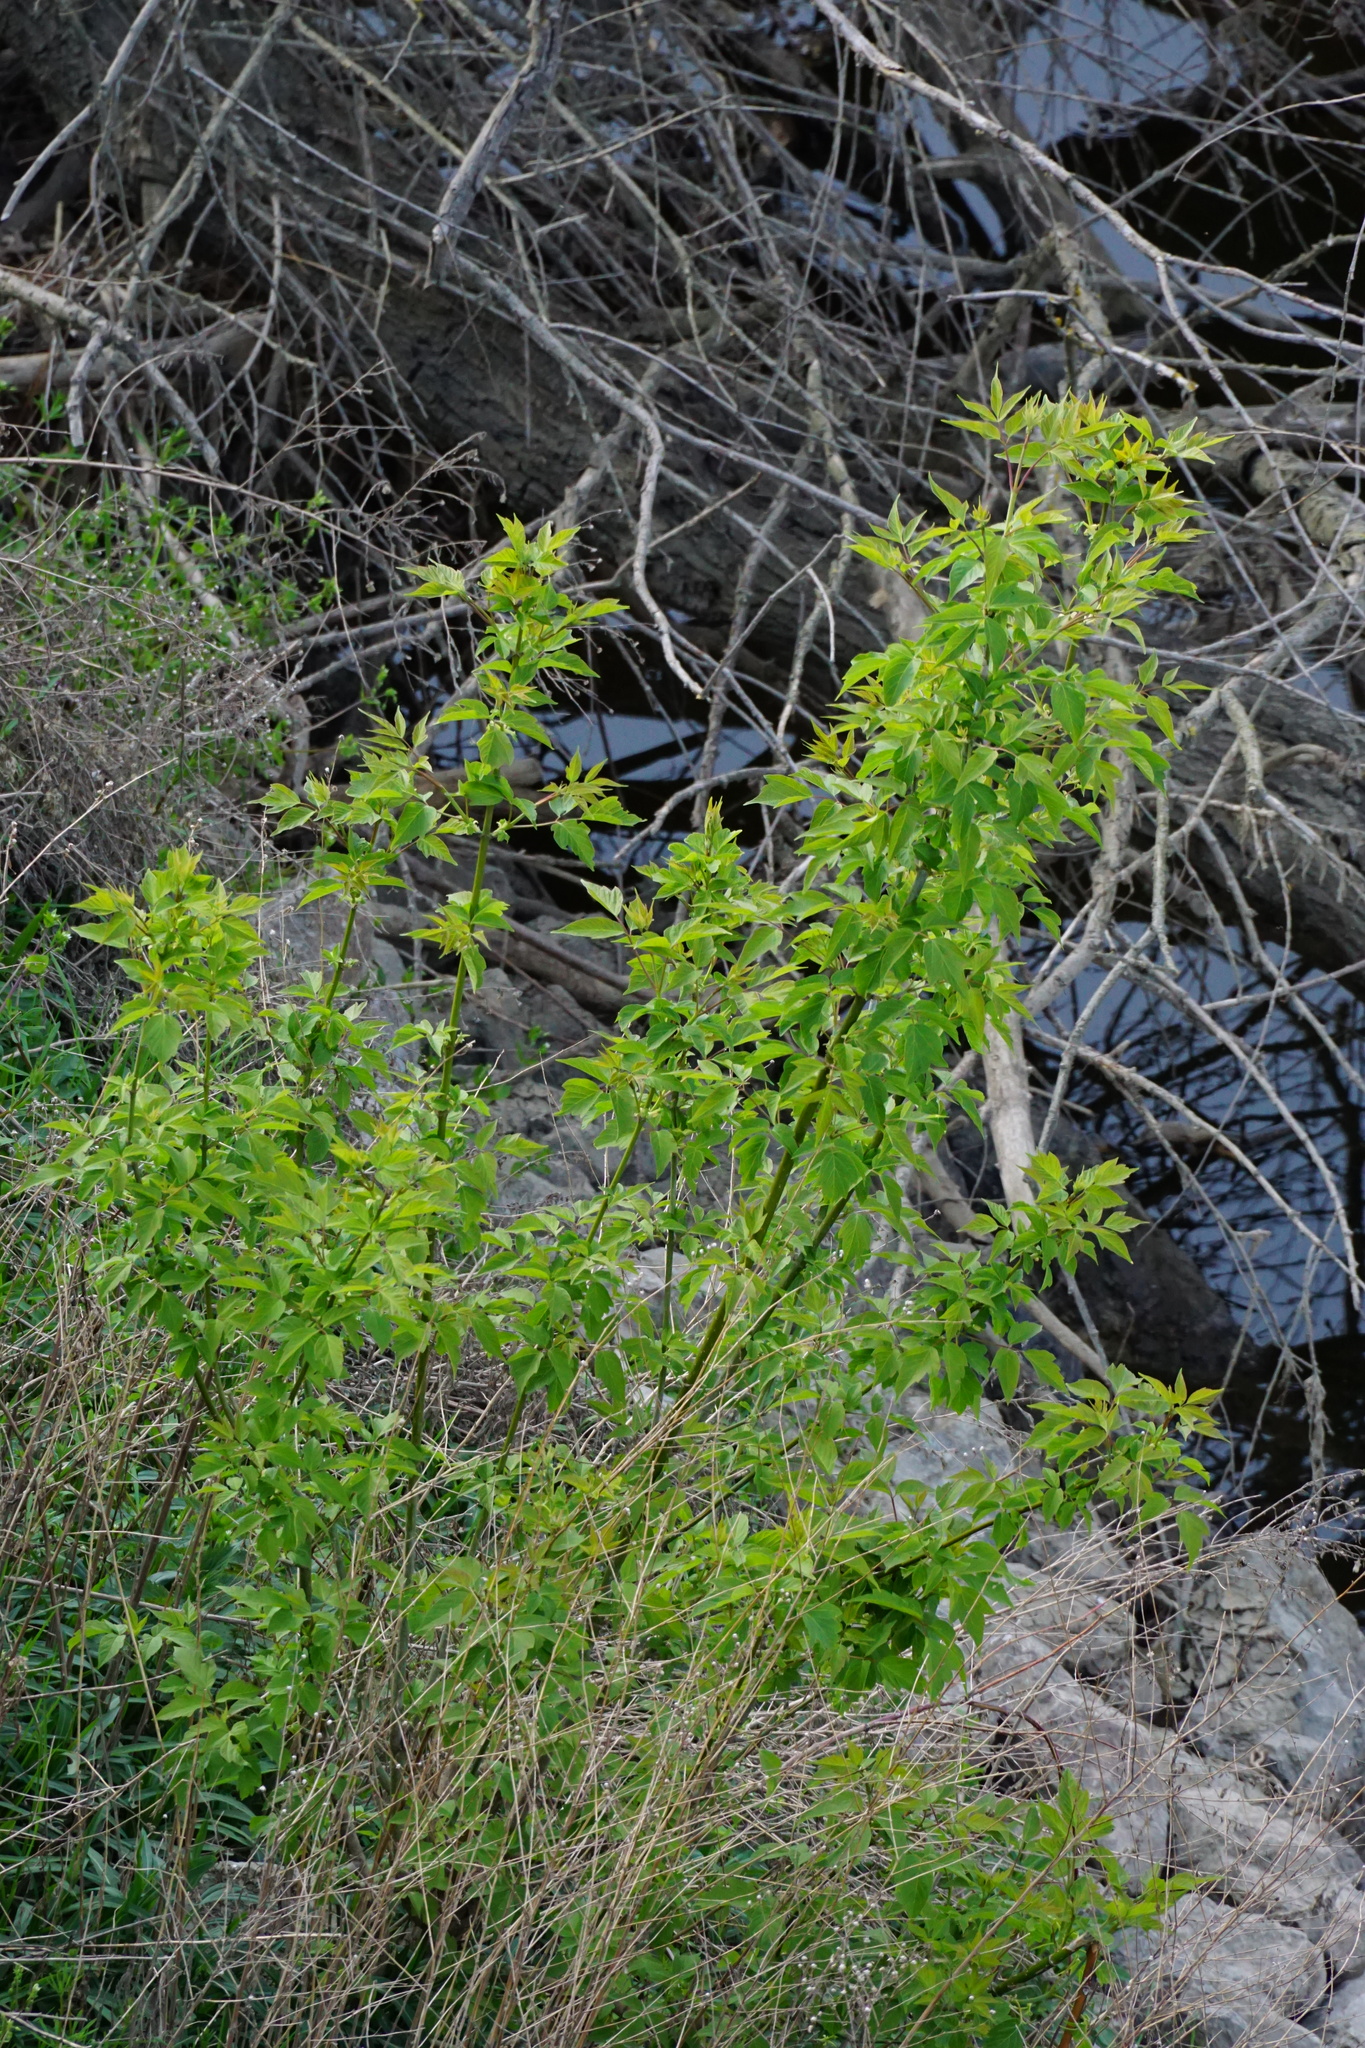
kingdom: Plantae
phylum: Tracheophyta
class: Magnoliopsida
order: Sapindales
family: Sapindaceae
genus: Acer
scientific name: Acer negundo
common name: Ashleaf maple
